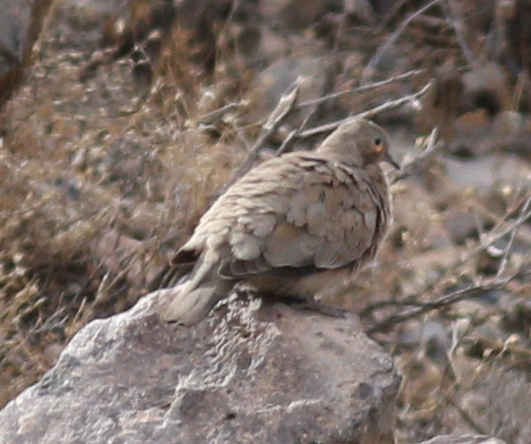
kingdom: Animalia
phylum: Chordata
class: Aves
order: Columbiformes
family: Columbidae
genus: Metriopelia
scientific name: Metriopelia melanoptera
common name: Black-winged ground dove
